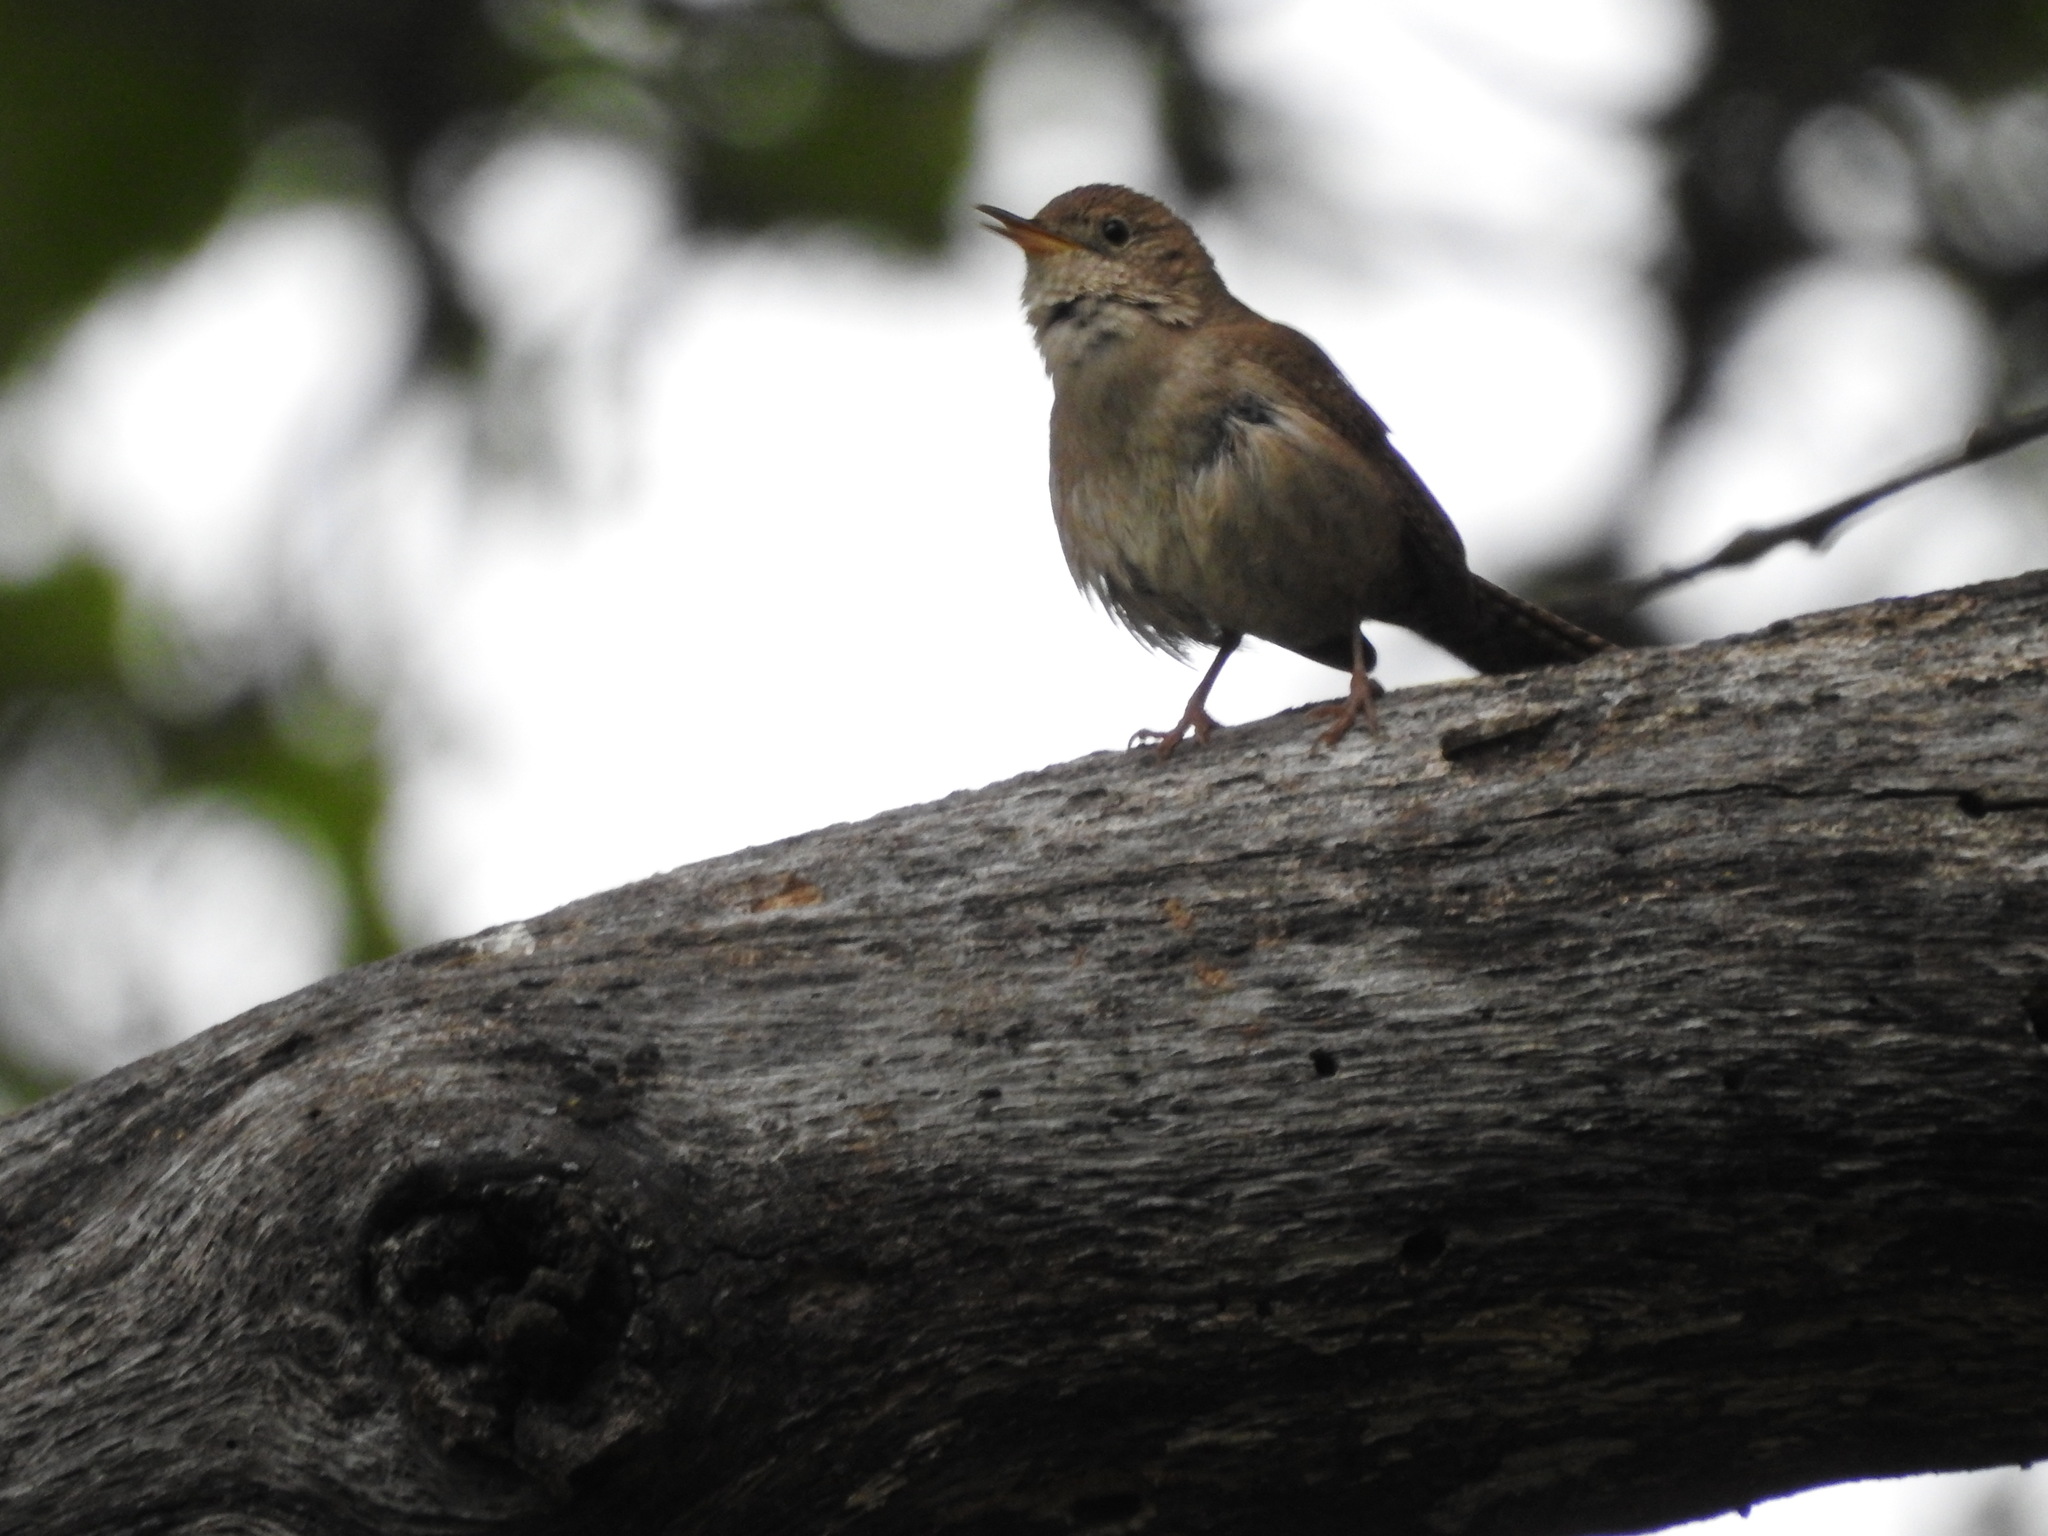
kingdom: Animalia
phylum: Chordata
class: Aves
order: Passeriformes
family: Troglodytidae
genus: Troglodytes
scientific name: Troglodytes aedon
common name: House wren
